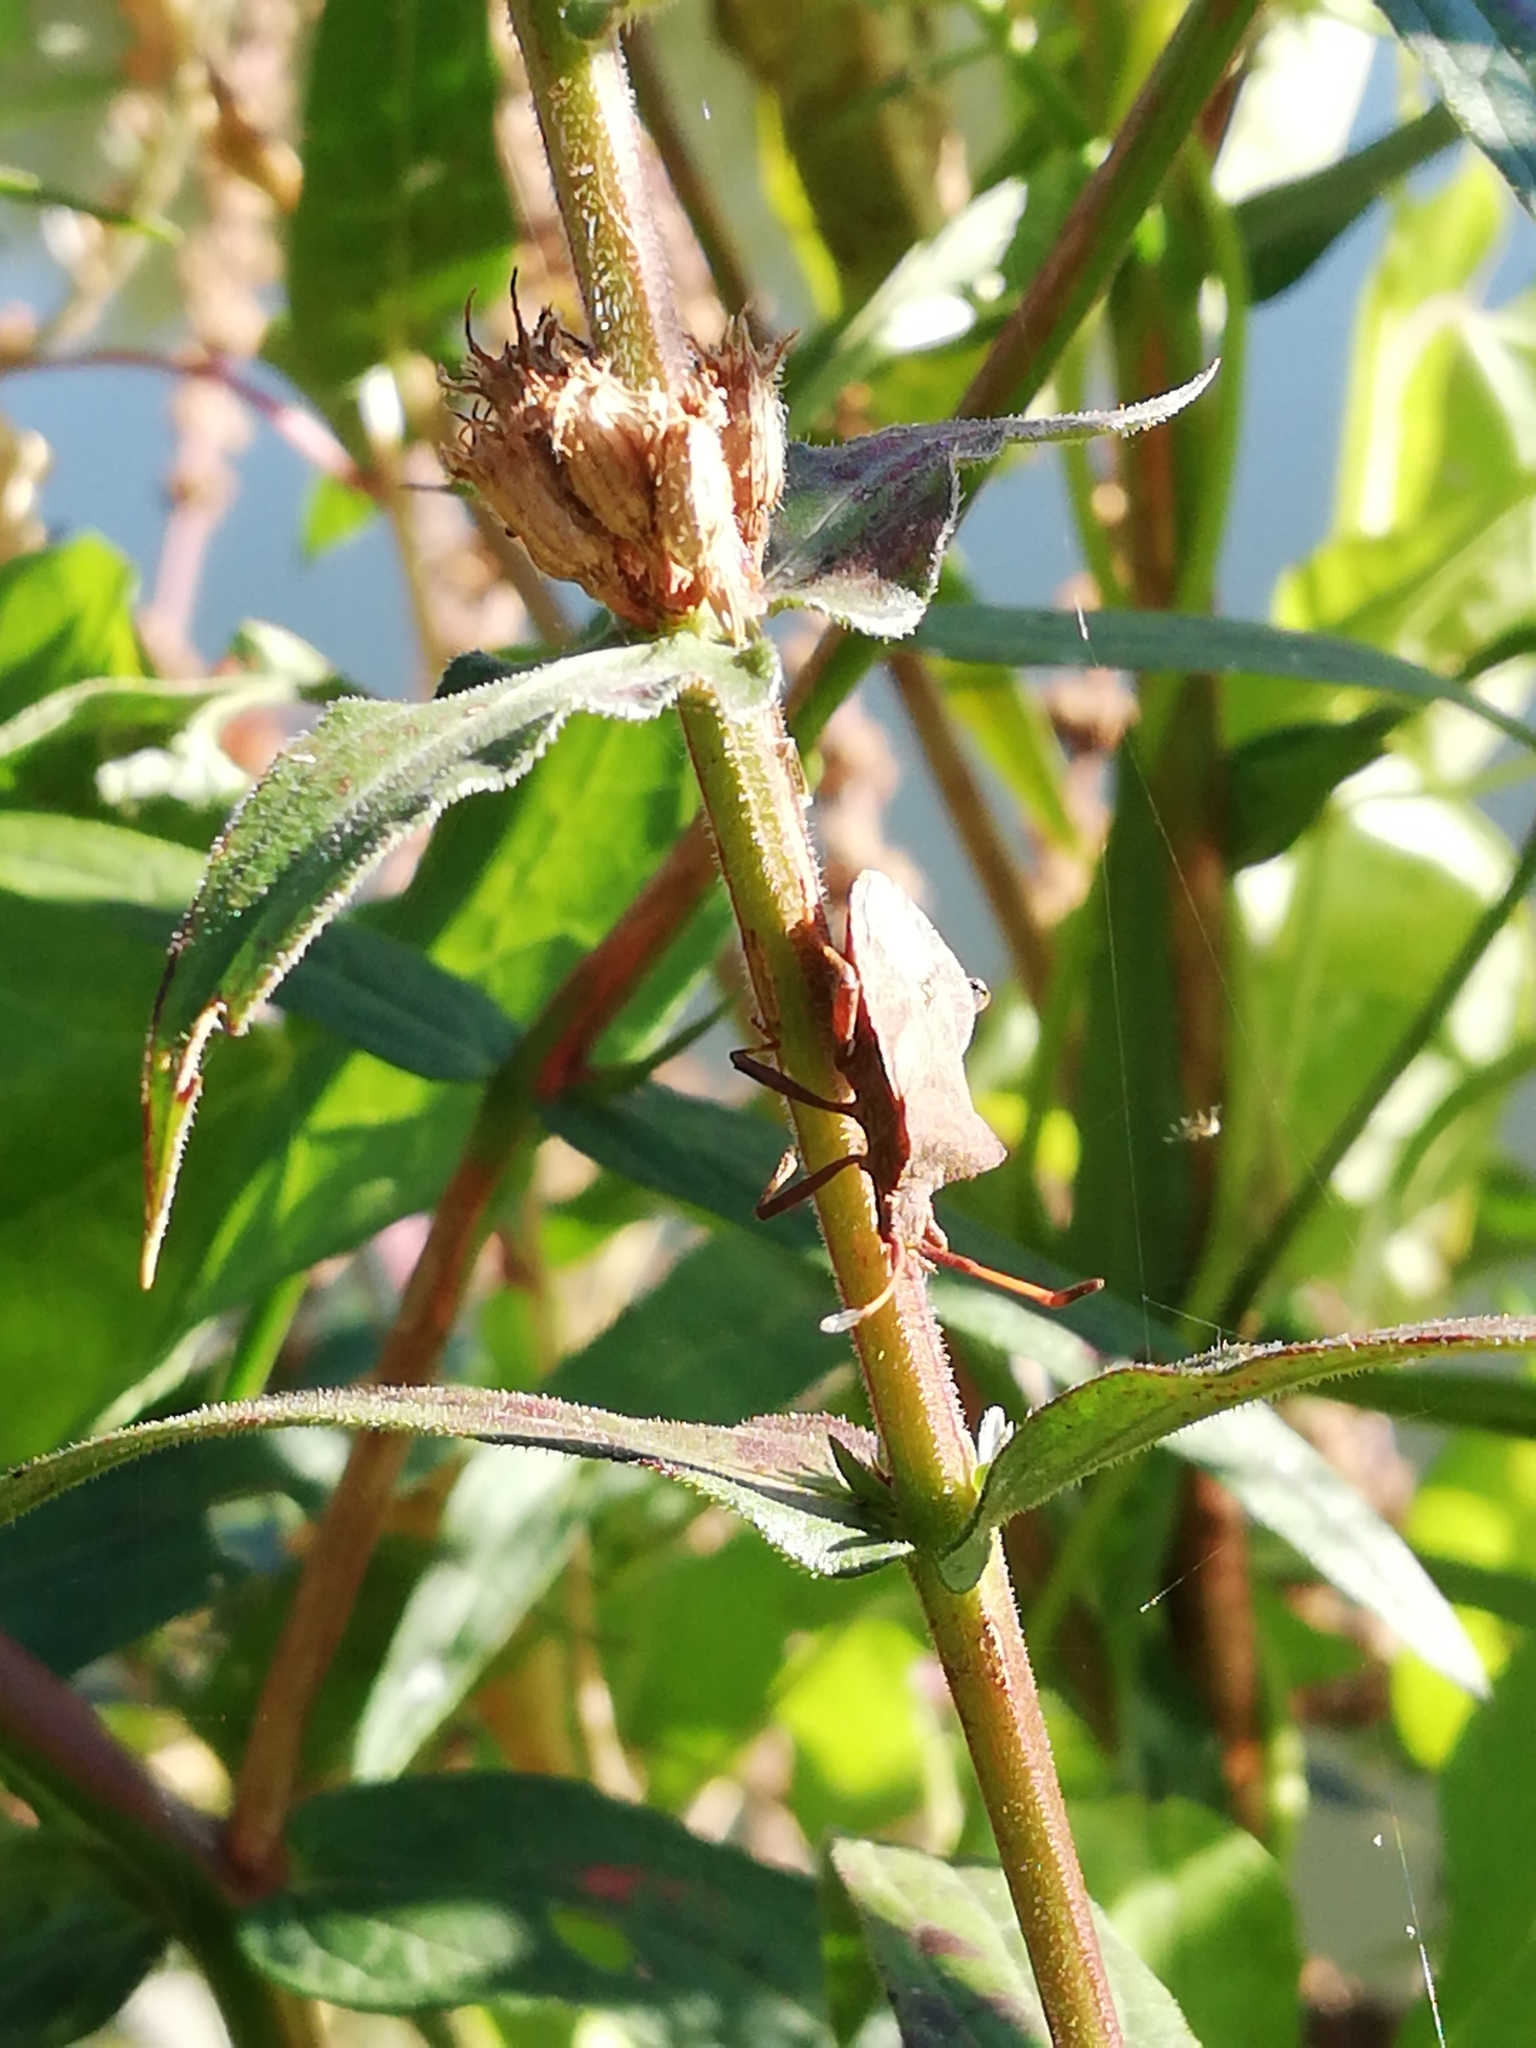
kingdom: Animalia
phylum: Arthropoda
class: Insecta
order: Hemiptera
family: Coreidae
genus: Coreus
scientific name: Coreus marginatus
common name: Dock bug
